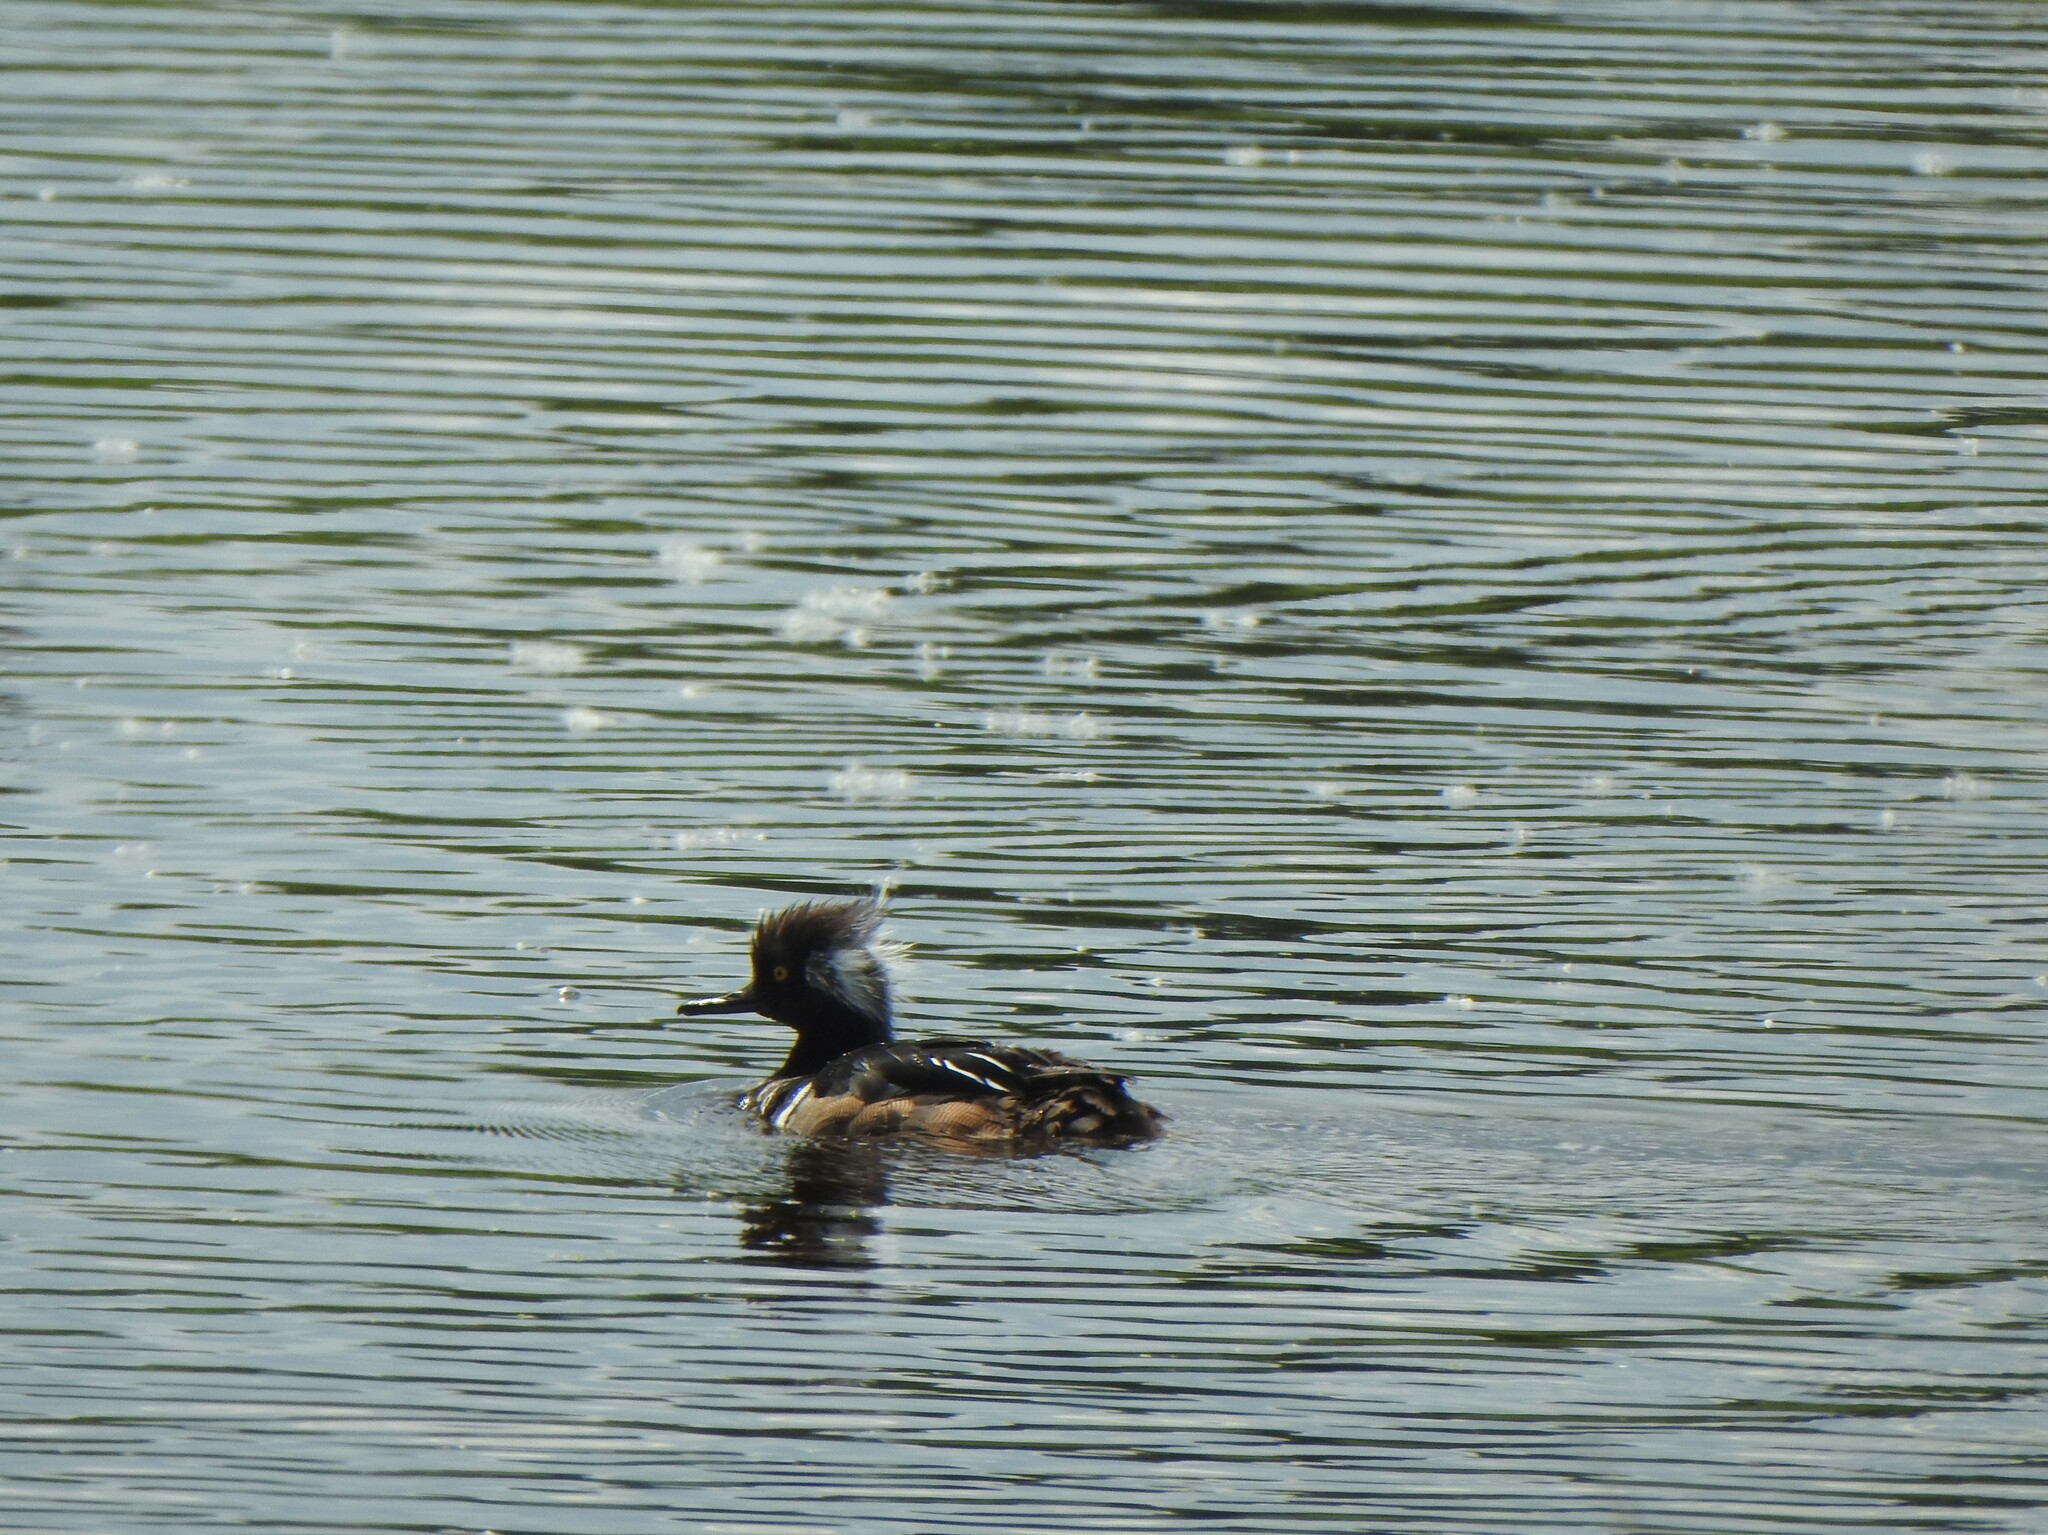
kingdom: Animalia
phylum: Chordata
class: Aves
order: Anseriformes
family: Anatidae
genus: Lophodytes
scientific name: Lophodytes cucullatus
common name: Hooded merganser
